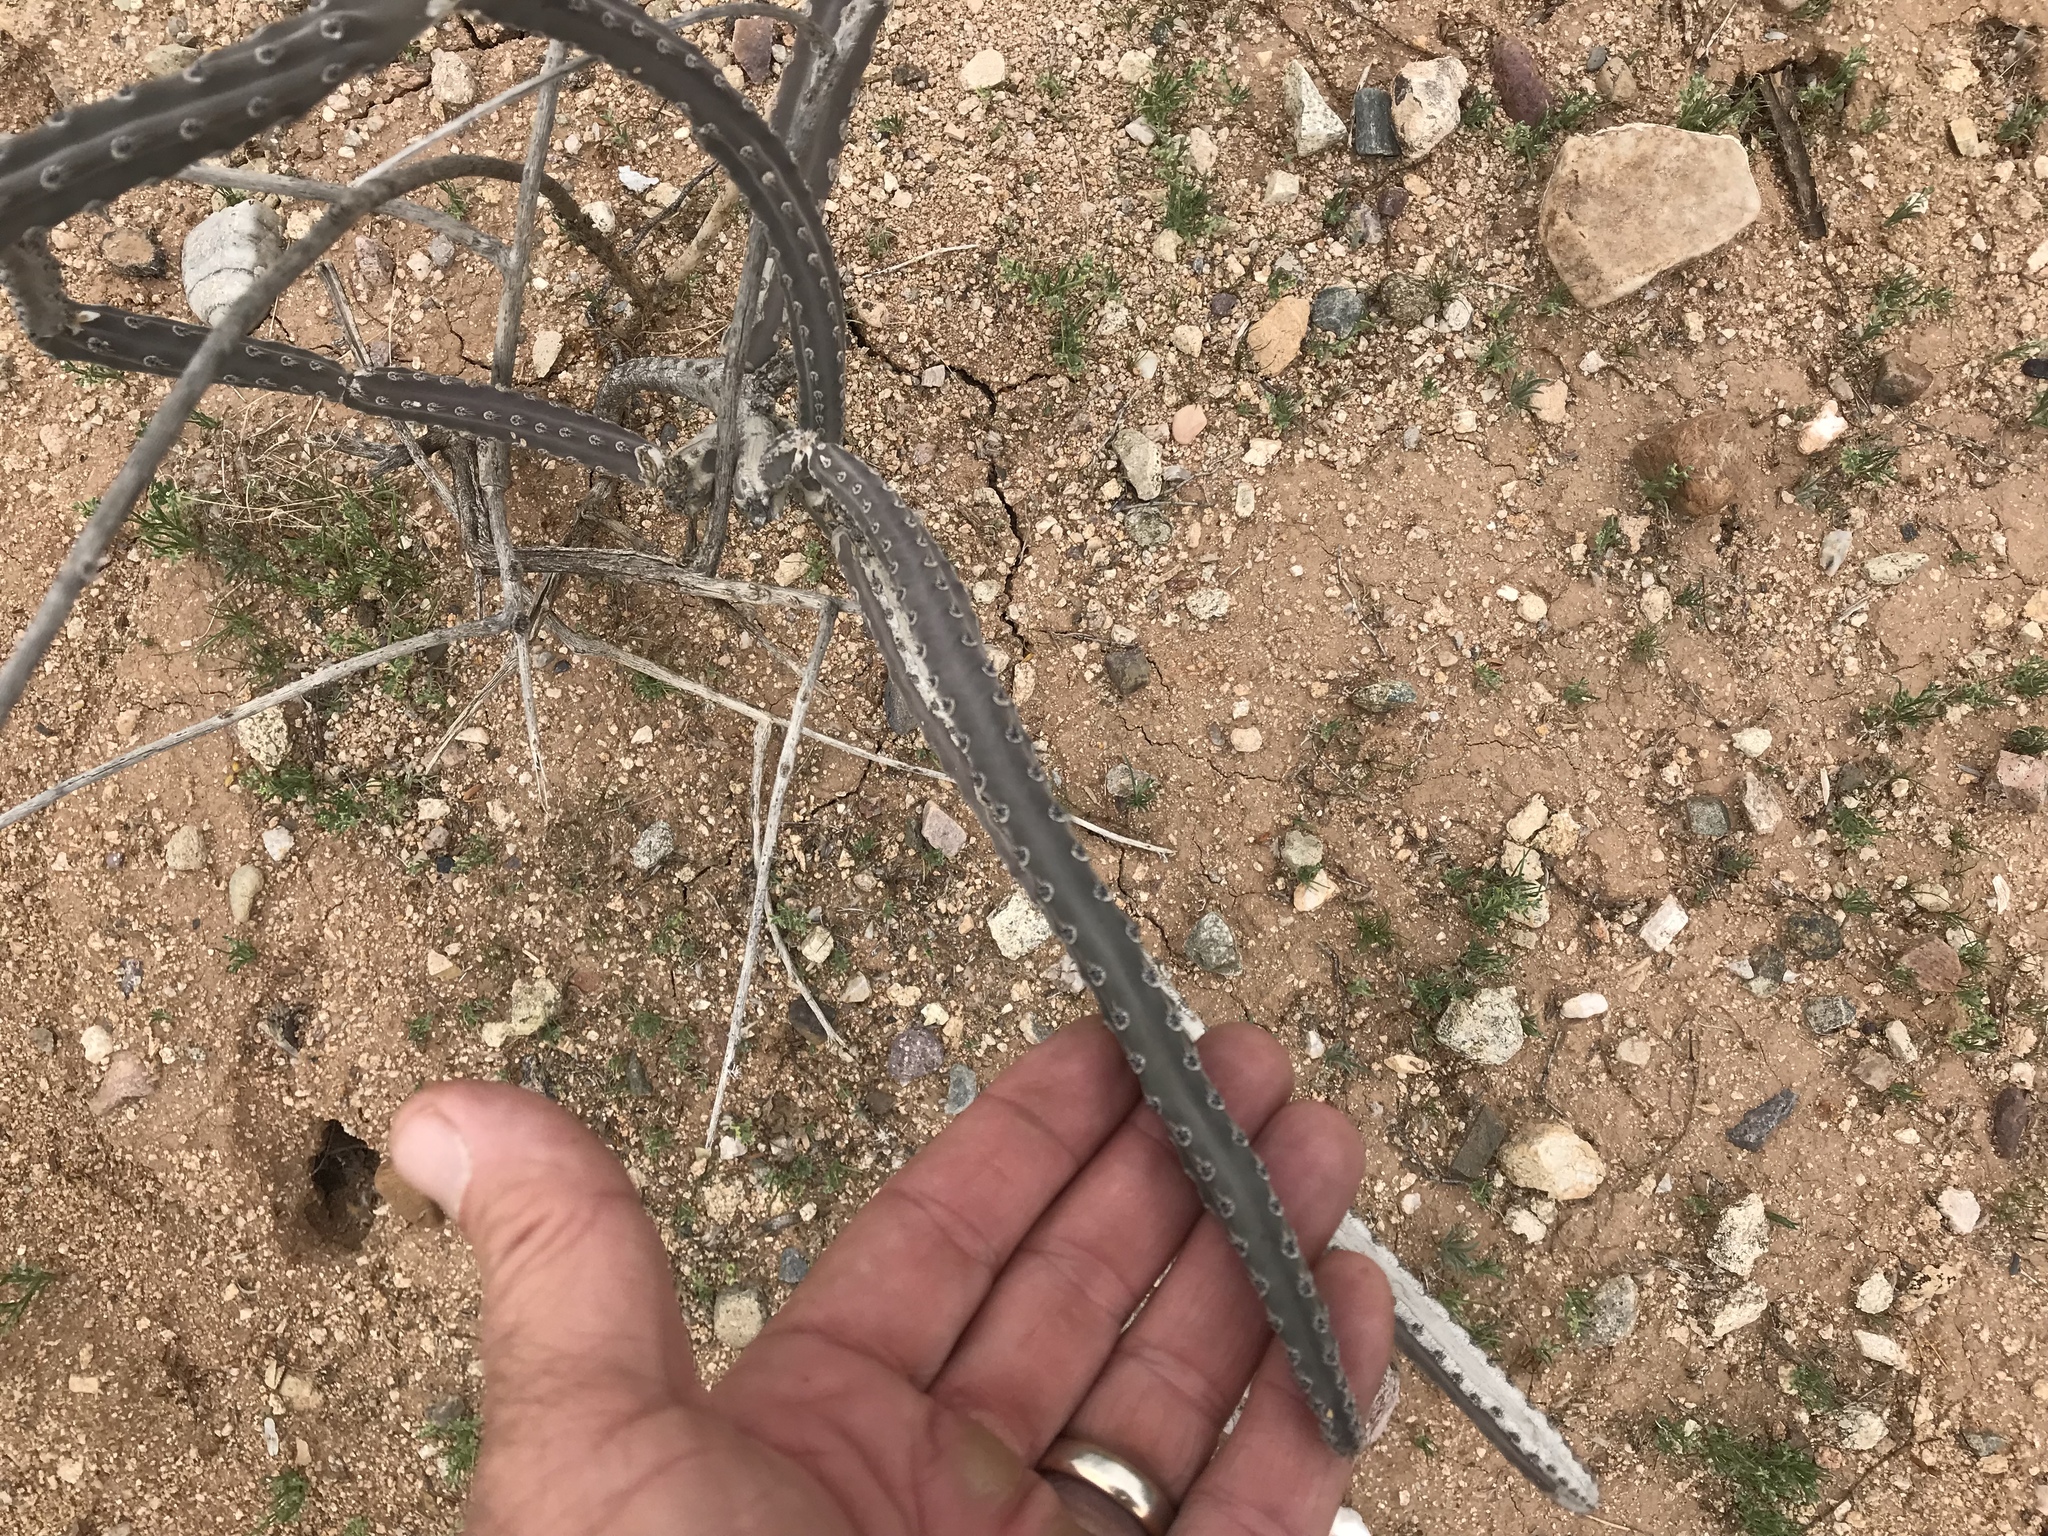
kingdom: Plantae
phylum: Tracheophyta
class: Magnoliopsida
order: Caryophyllales
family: Cactaceae
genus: Peniocereus
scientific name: Peniocereus greggii
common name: Desert night-blooming cereus
